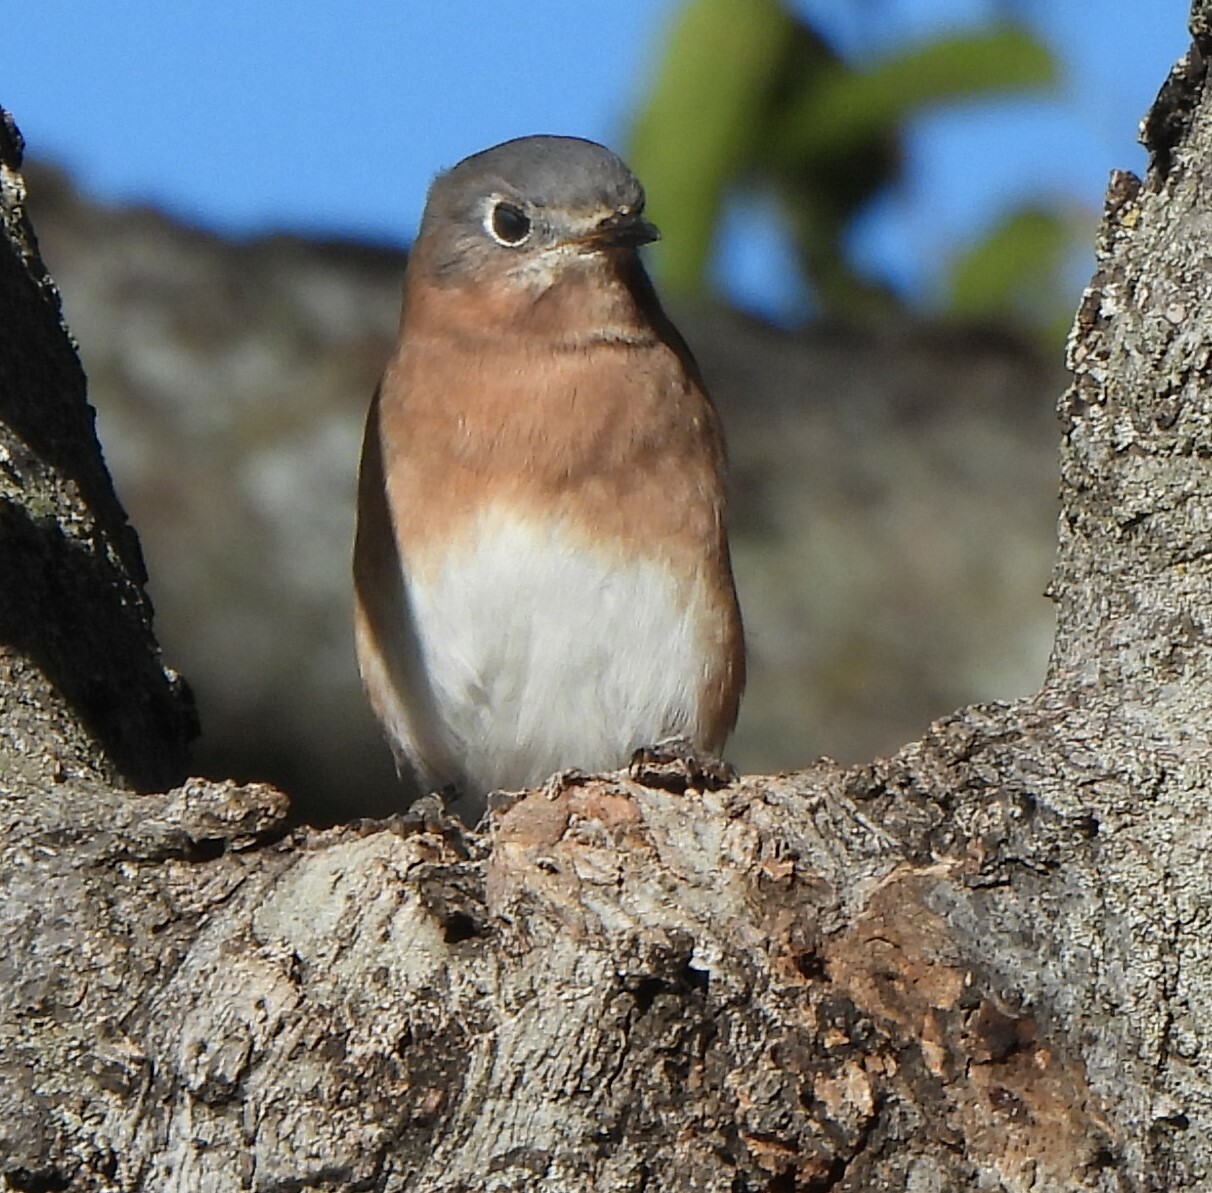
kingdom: Animalia
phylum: Chordata
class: Aves
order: Passeriformes
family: Turdidae
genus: Sialia
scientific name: Sialia sialis
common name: Eastern bluebird
